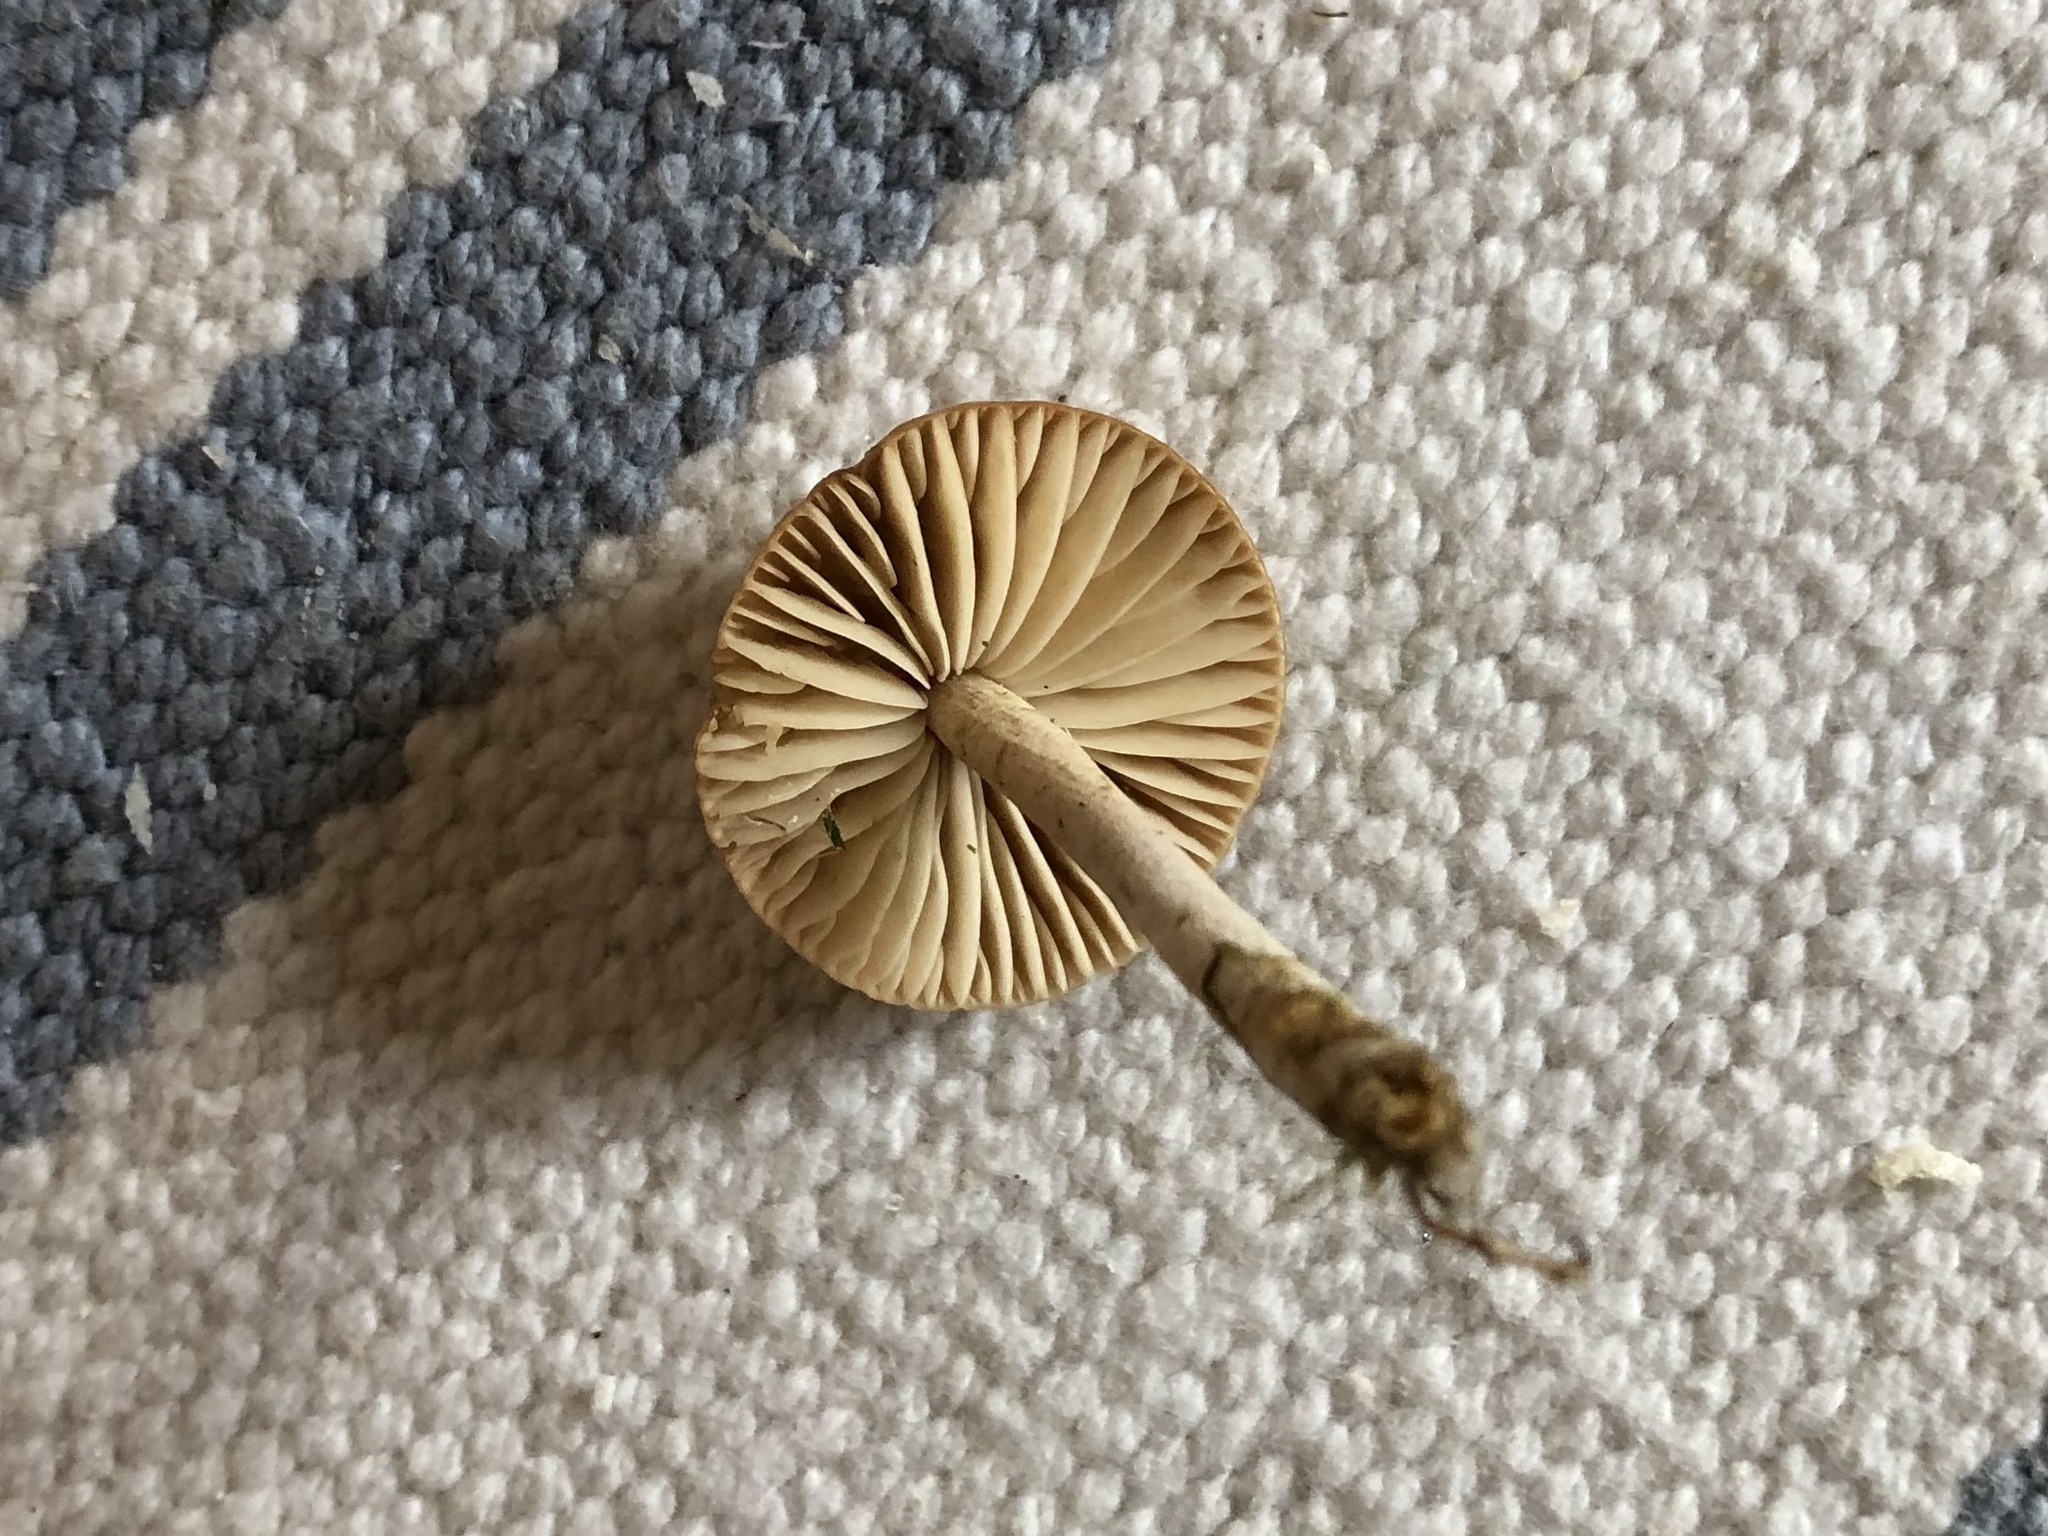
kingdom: Fungi
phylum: Basidiomycota
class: Agaricomycetes
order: Agaricales
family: Marasmiaceae
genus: Marasmius
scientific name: Marasmius oreades
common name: Fairy ring champignon
